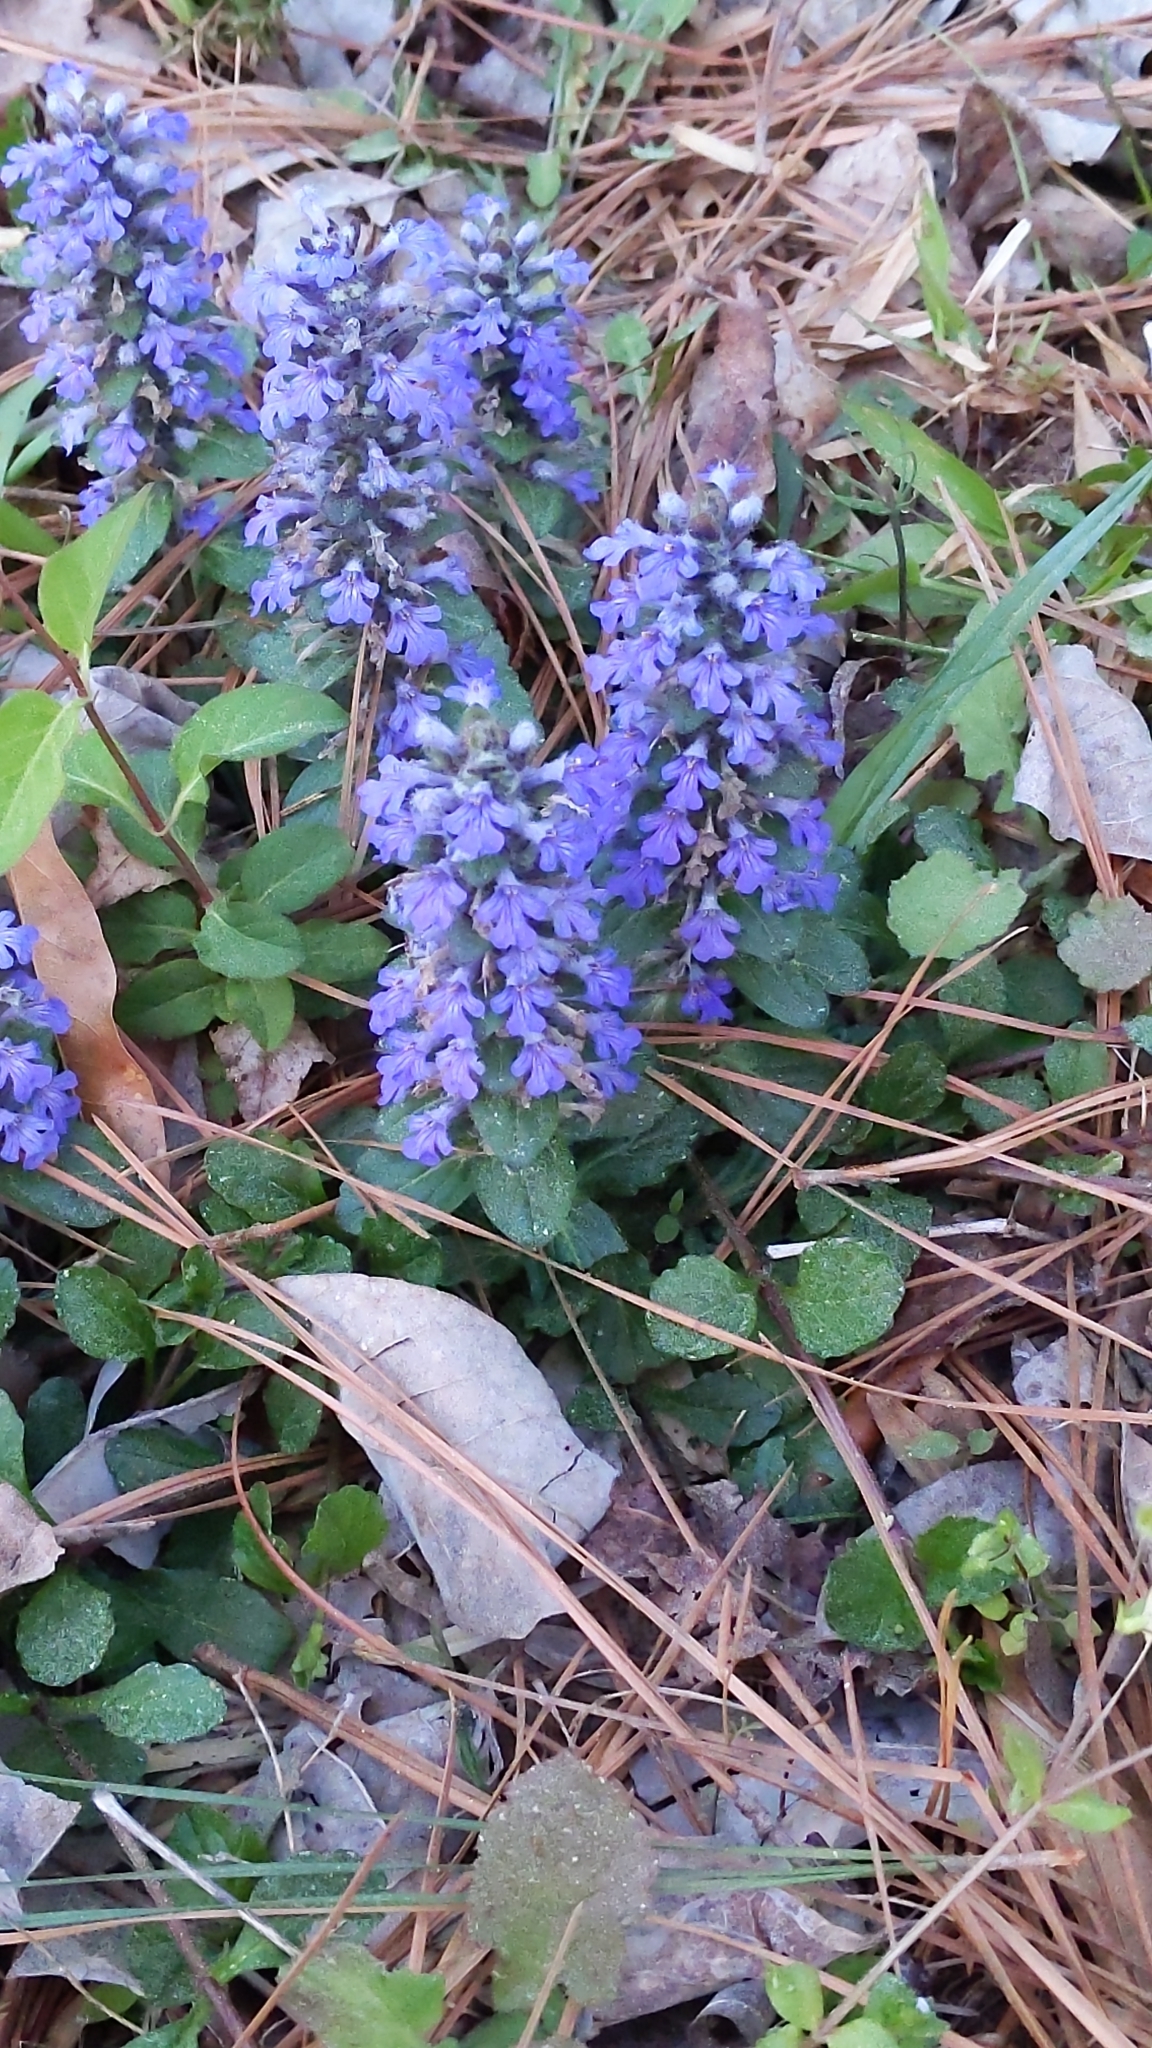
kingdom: Plantae
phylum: Tracheophyta
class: Magnoliopsida
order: Lamiales
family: Lamiaceae
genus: Ajuga
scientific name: Ajuga reptans
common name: Bugle
